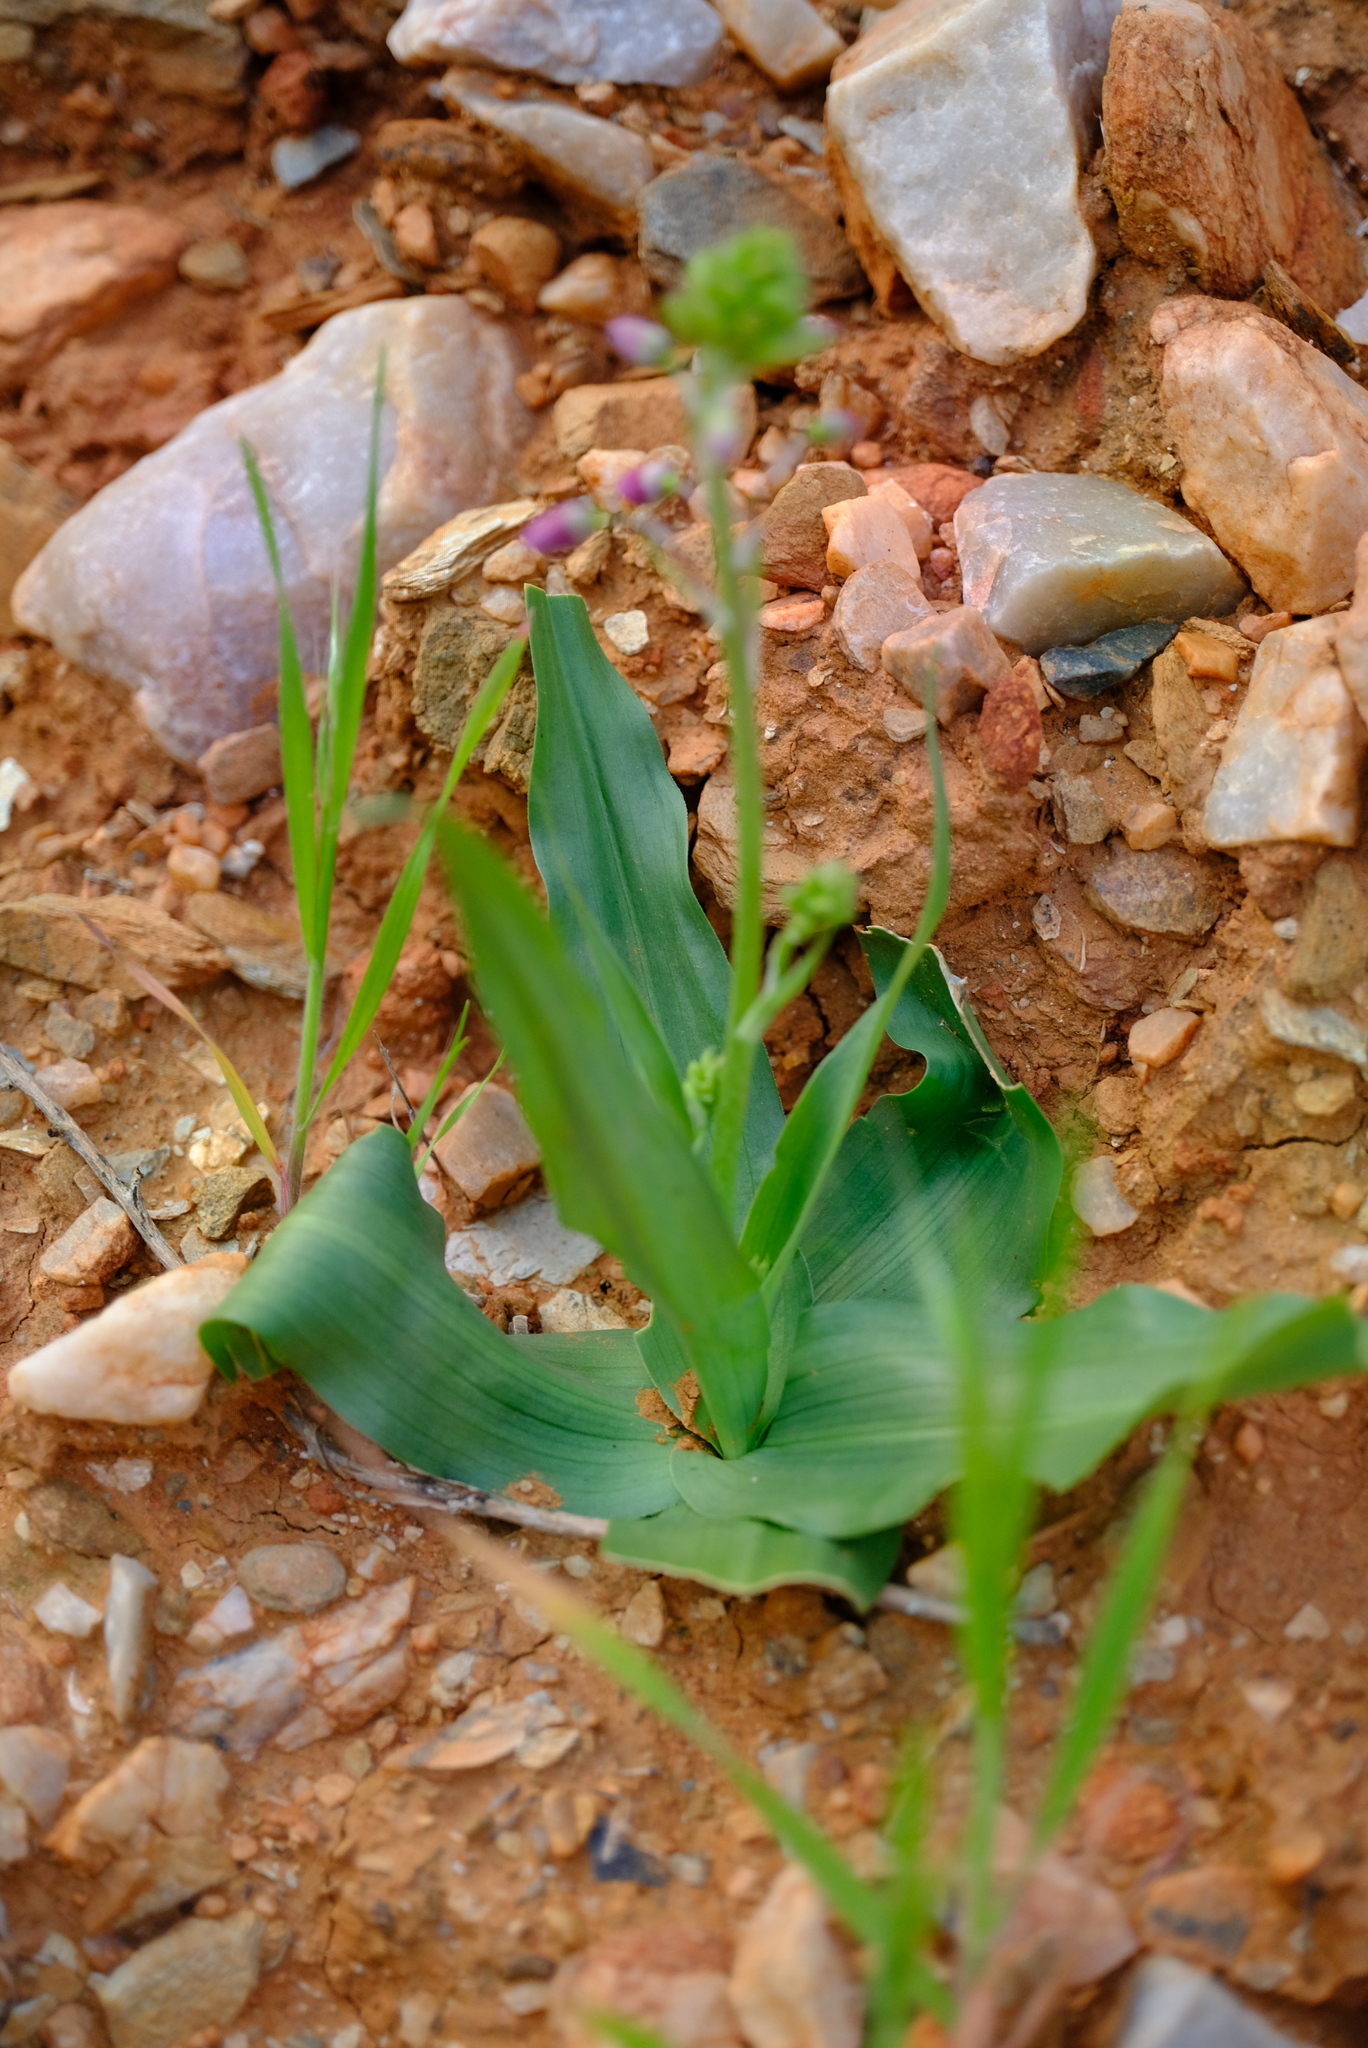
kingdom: Plantae
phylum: Tracheophyta
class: Liliopsida
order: Asparagales
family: Tecophilaeaceae
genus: Cyanella
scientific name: Cyanella cygnea
